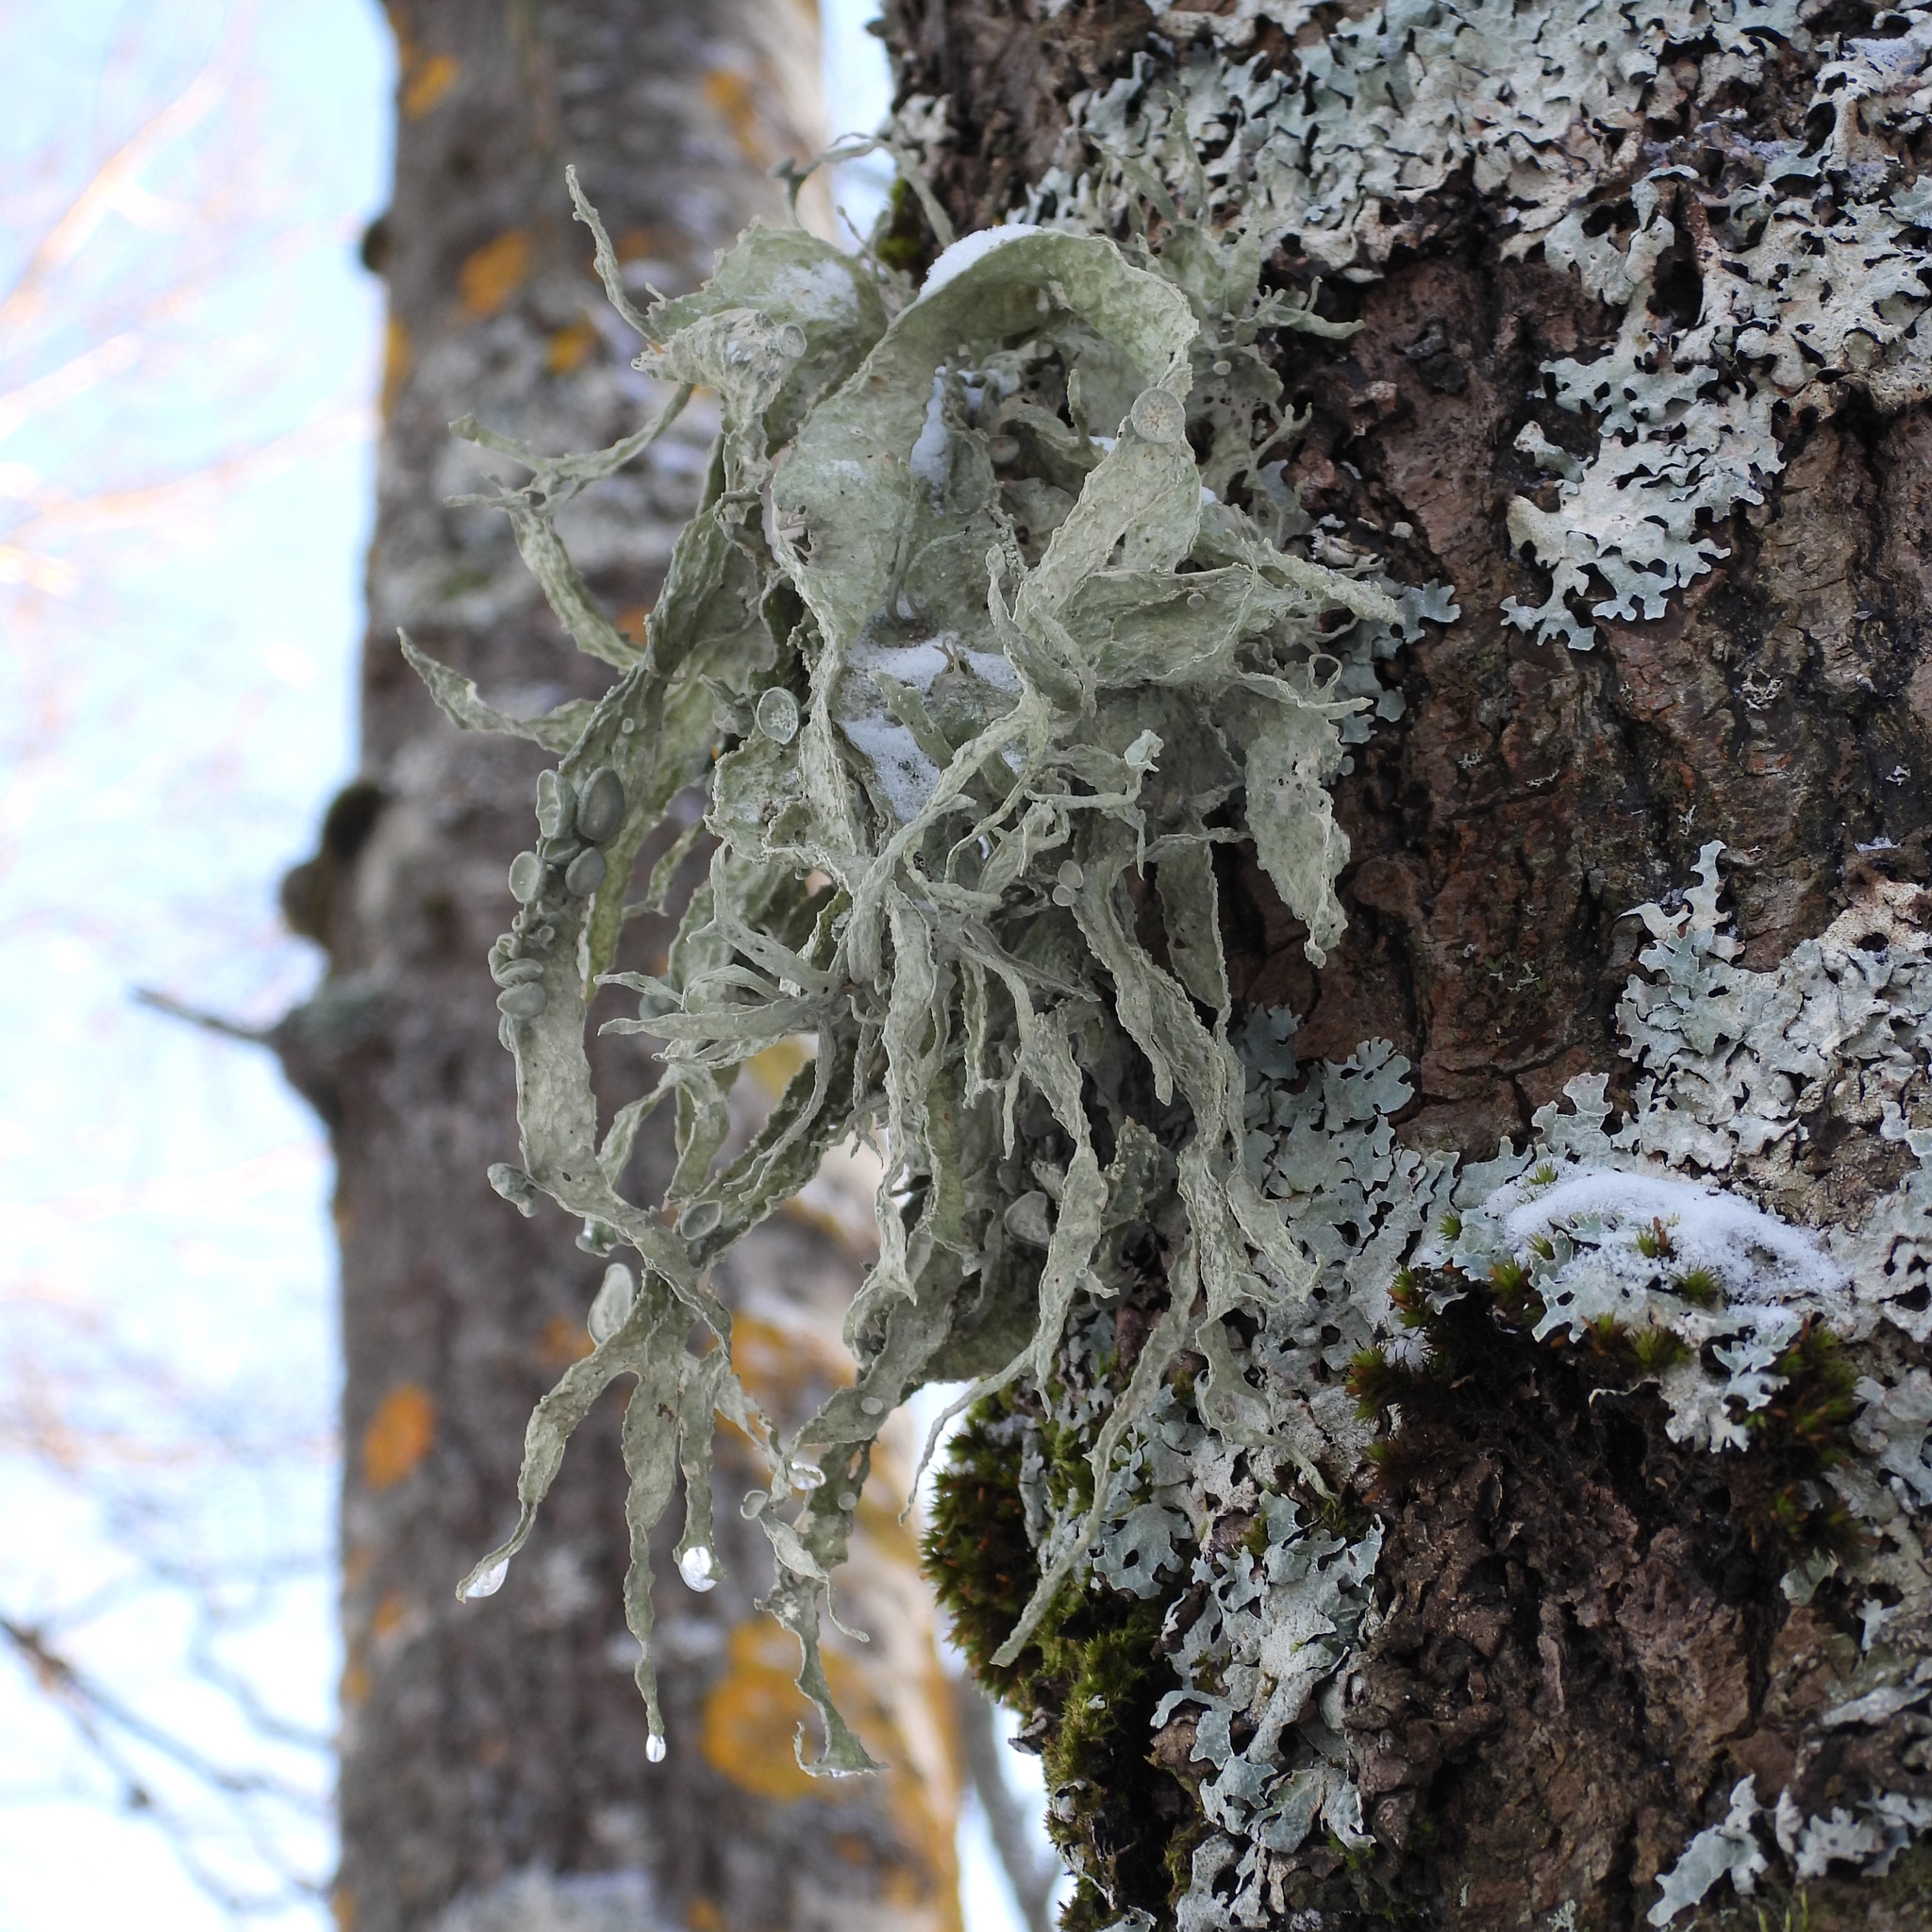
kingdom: Fungi
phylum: Ascomycota
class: Lecanoromycetes
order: Lecanorales
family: Ramalinaceae
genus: Ramalina
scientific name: Ramalina fraxinea
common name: Cartilage lichen
